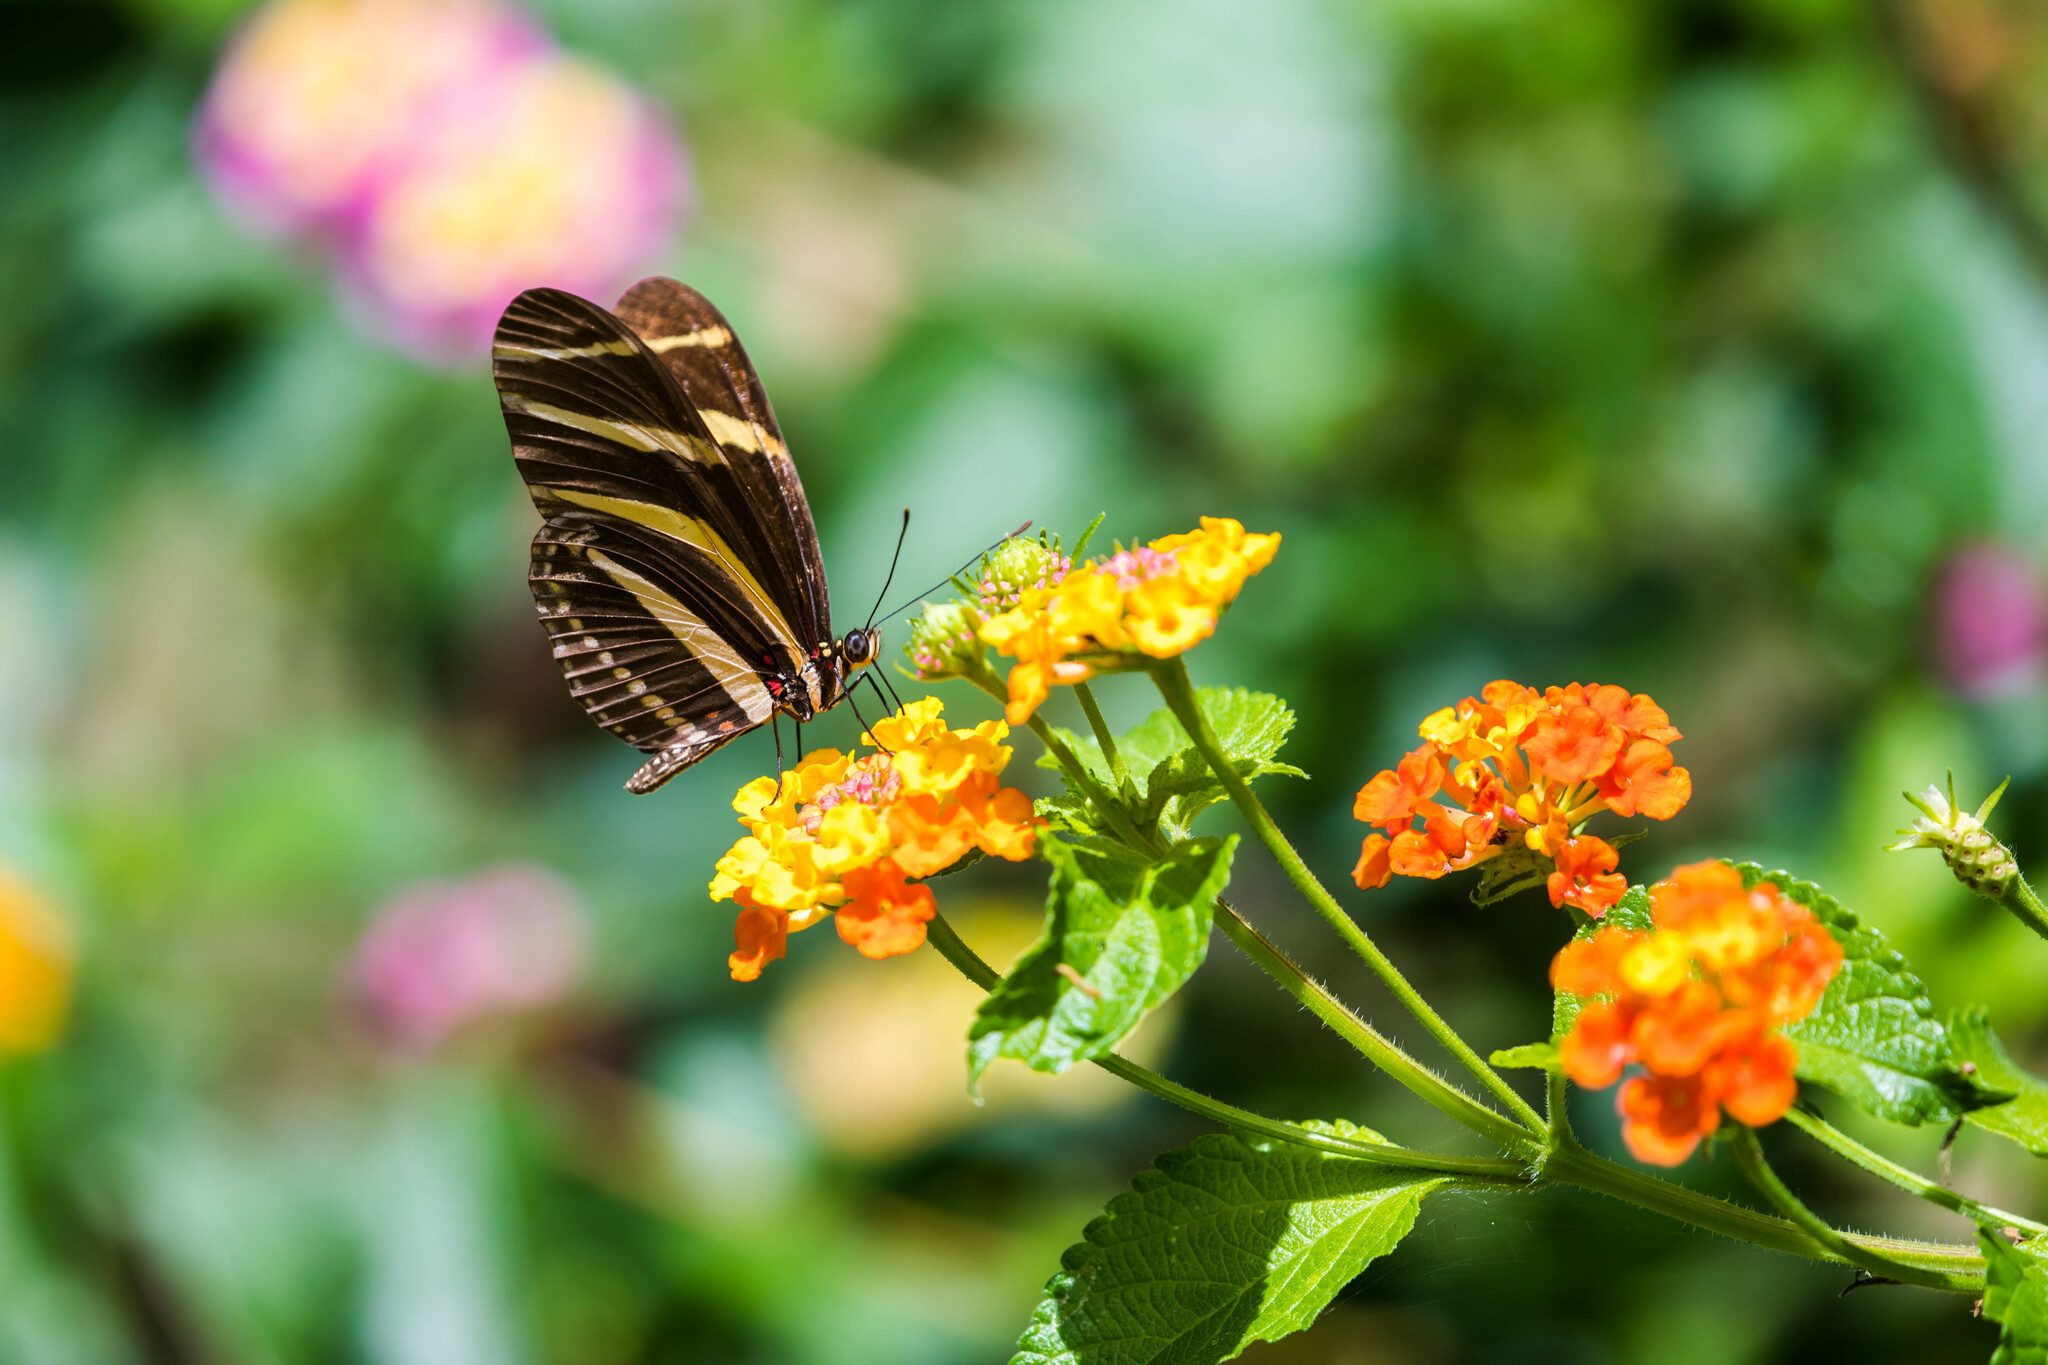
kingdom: Animalia
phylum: Arthropoda
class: Insecta
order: Lepidoptera
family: Nymphalidae
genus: Heliconius
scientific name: Heliconius charithonia
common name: Zebra long wing
